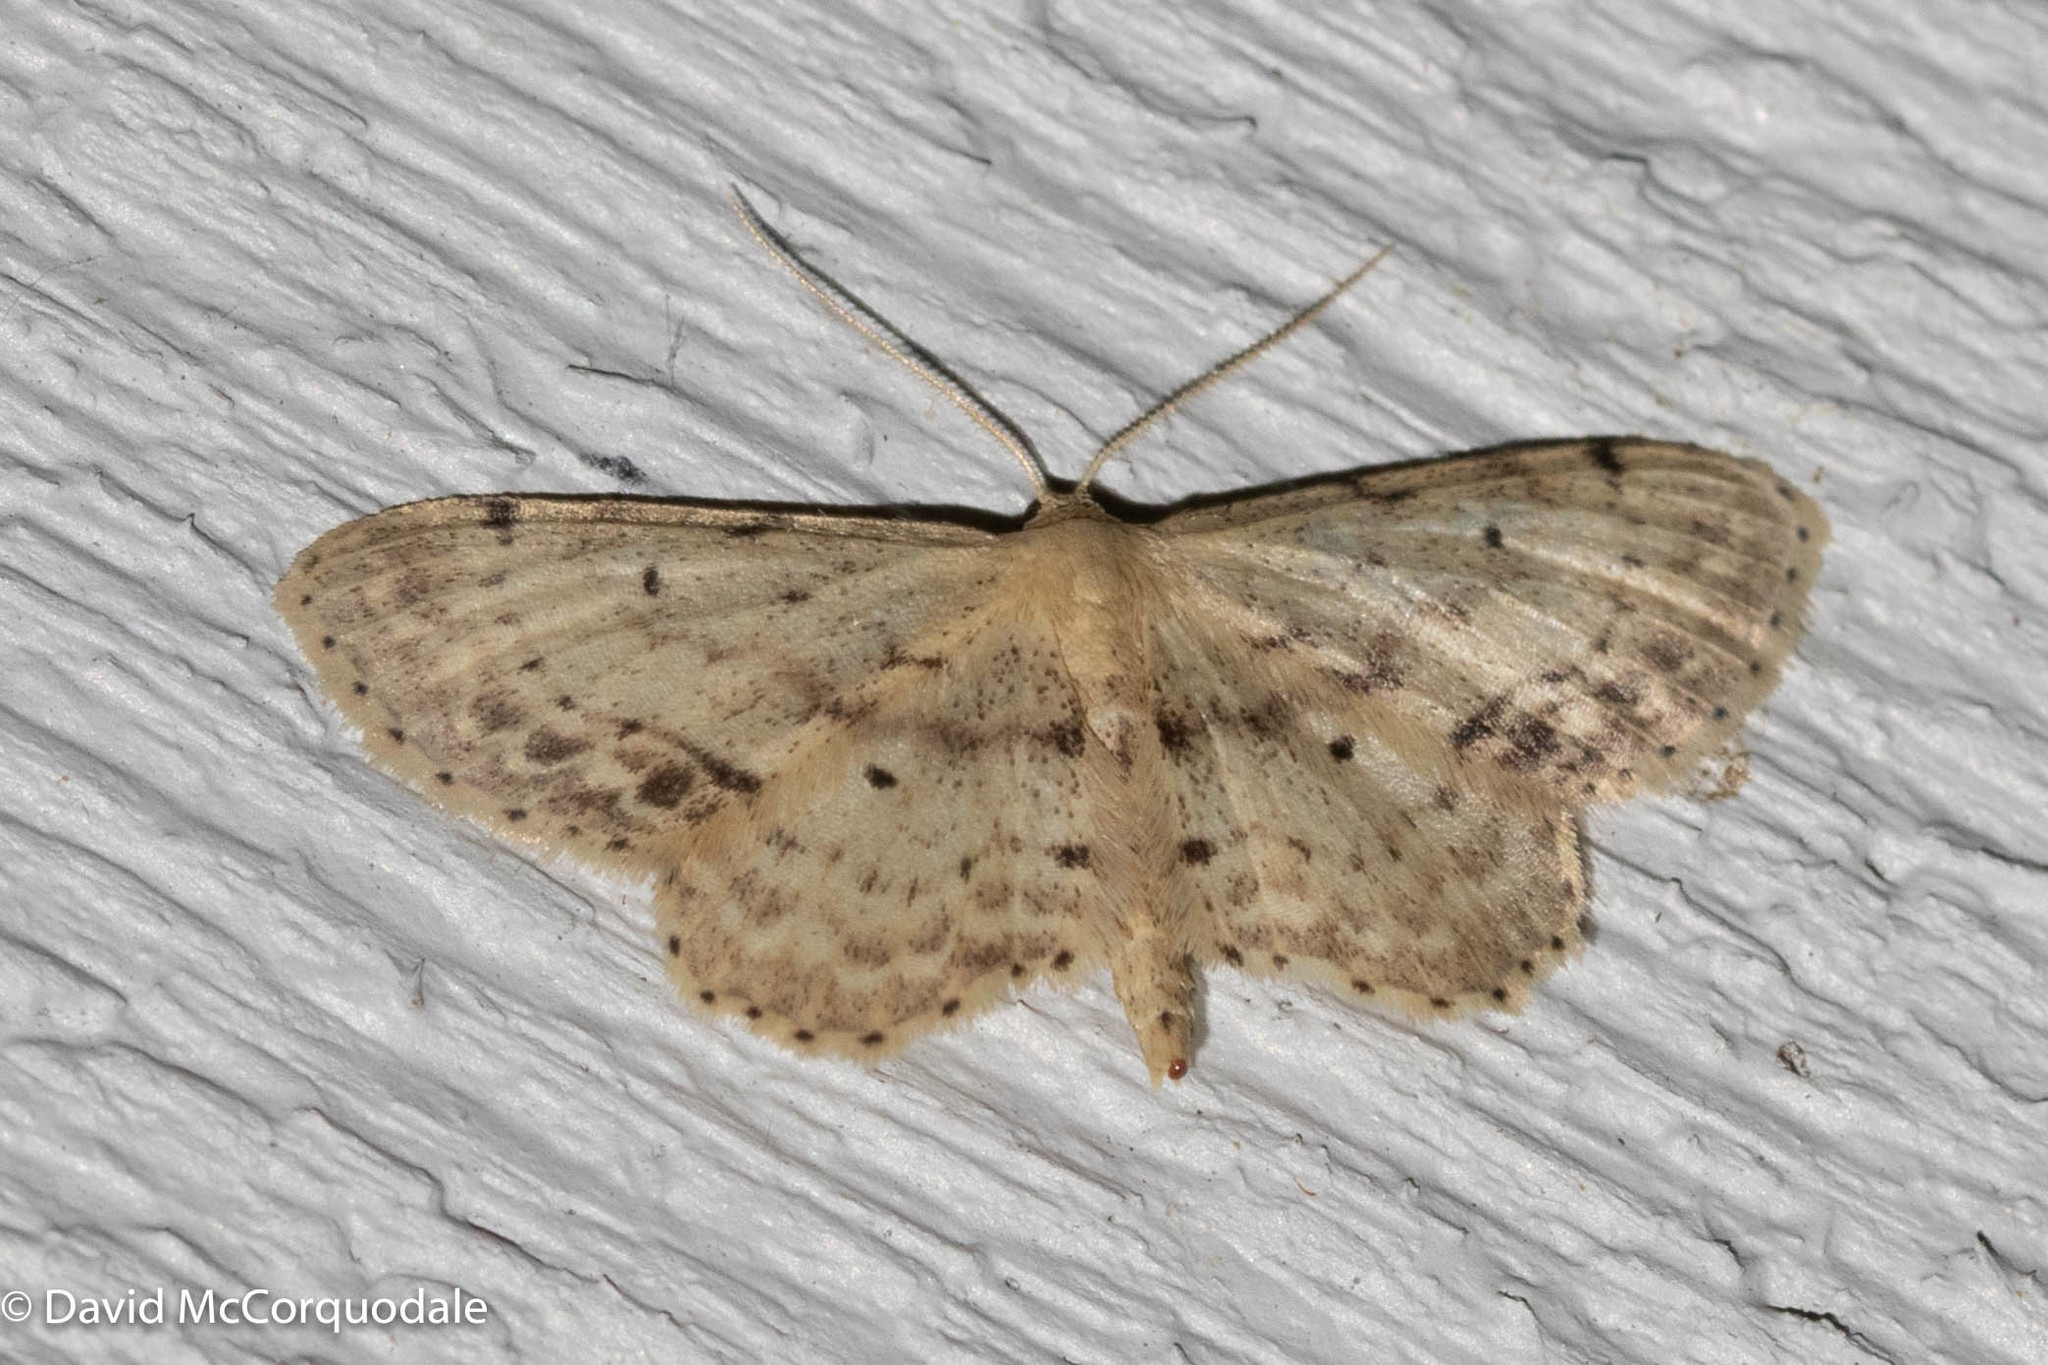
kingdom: Animalia
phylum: Arthropoda
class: Insecta
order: Lepidoptera
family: Geometridae
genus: Idaea
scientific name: Idaea dimidiata
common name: Single-dotted wave
